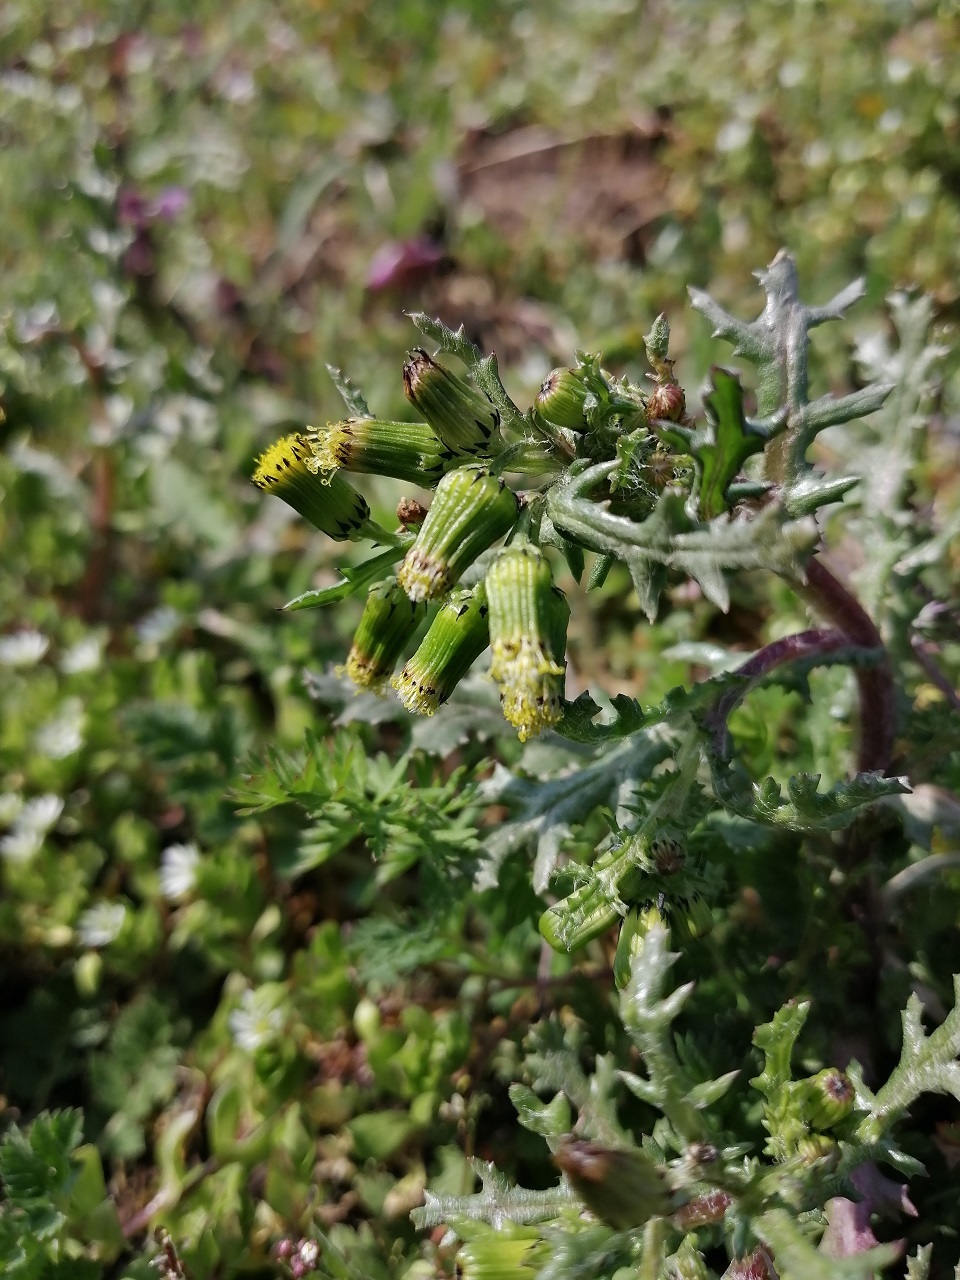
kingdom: Plantae
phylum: Tracheophyta
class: Magnoliopsida
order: Asterales
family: Asteraceae
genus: Senecio
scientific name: Senecio vulgaris
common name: Old-man-in-the-spring
